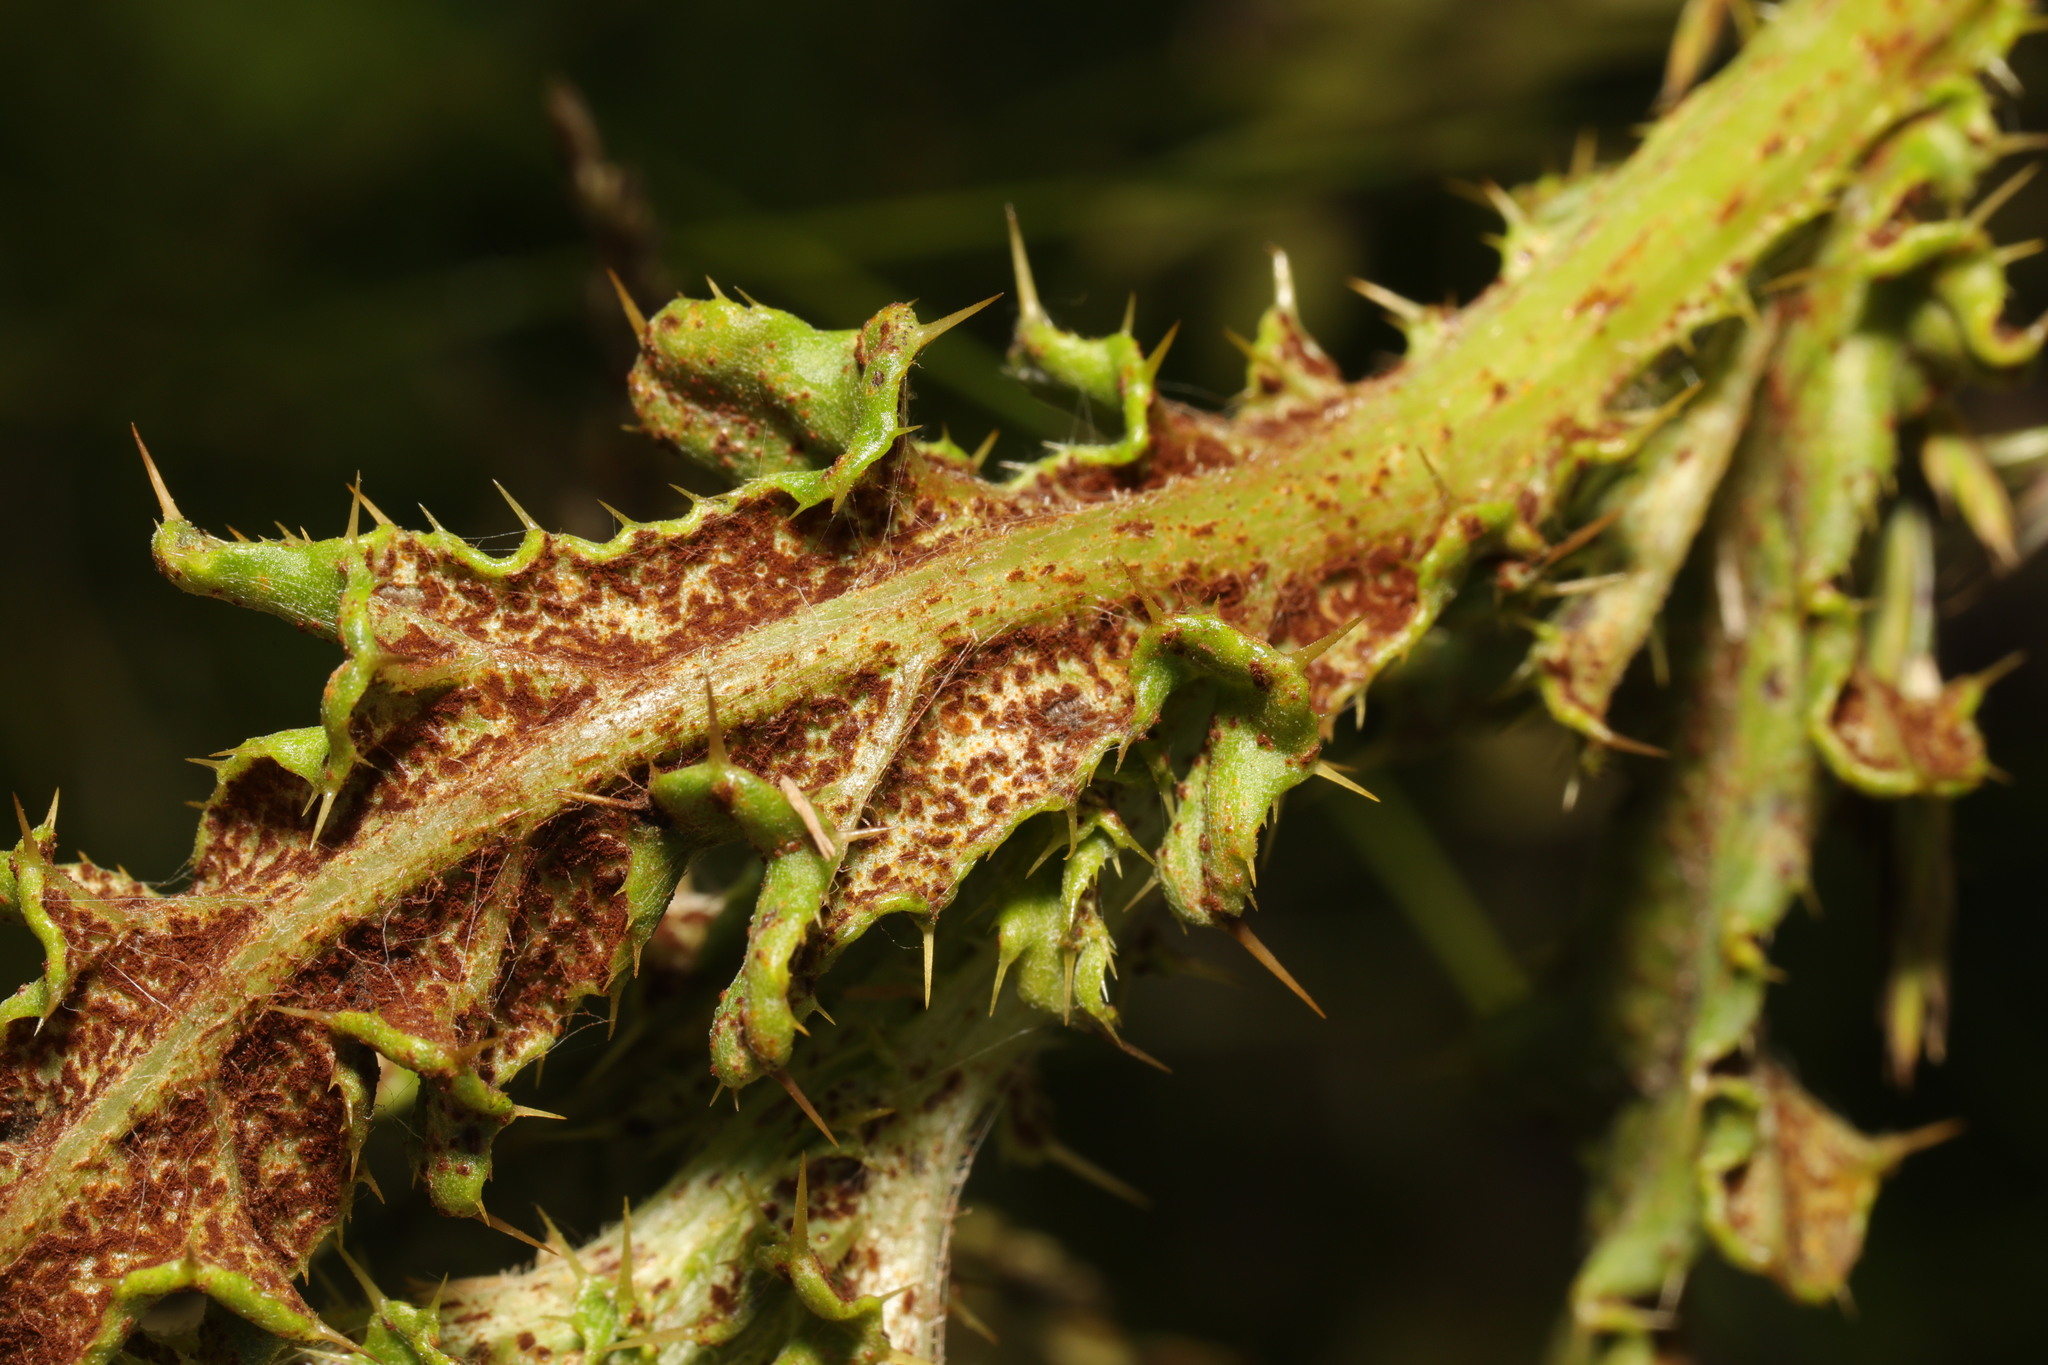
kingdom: Fungi
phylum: Basidiomycota
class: Pucciniomycetes
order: Pucciniales
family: Pucciniaceae
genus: Puccinia
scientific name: Puccinia suaveolens
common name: Thistle rust
